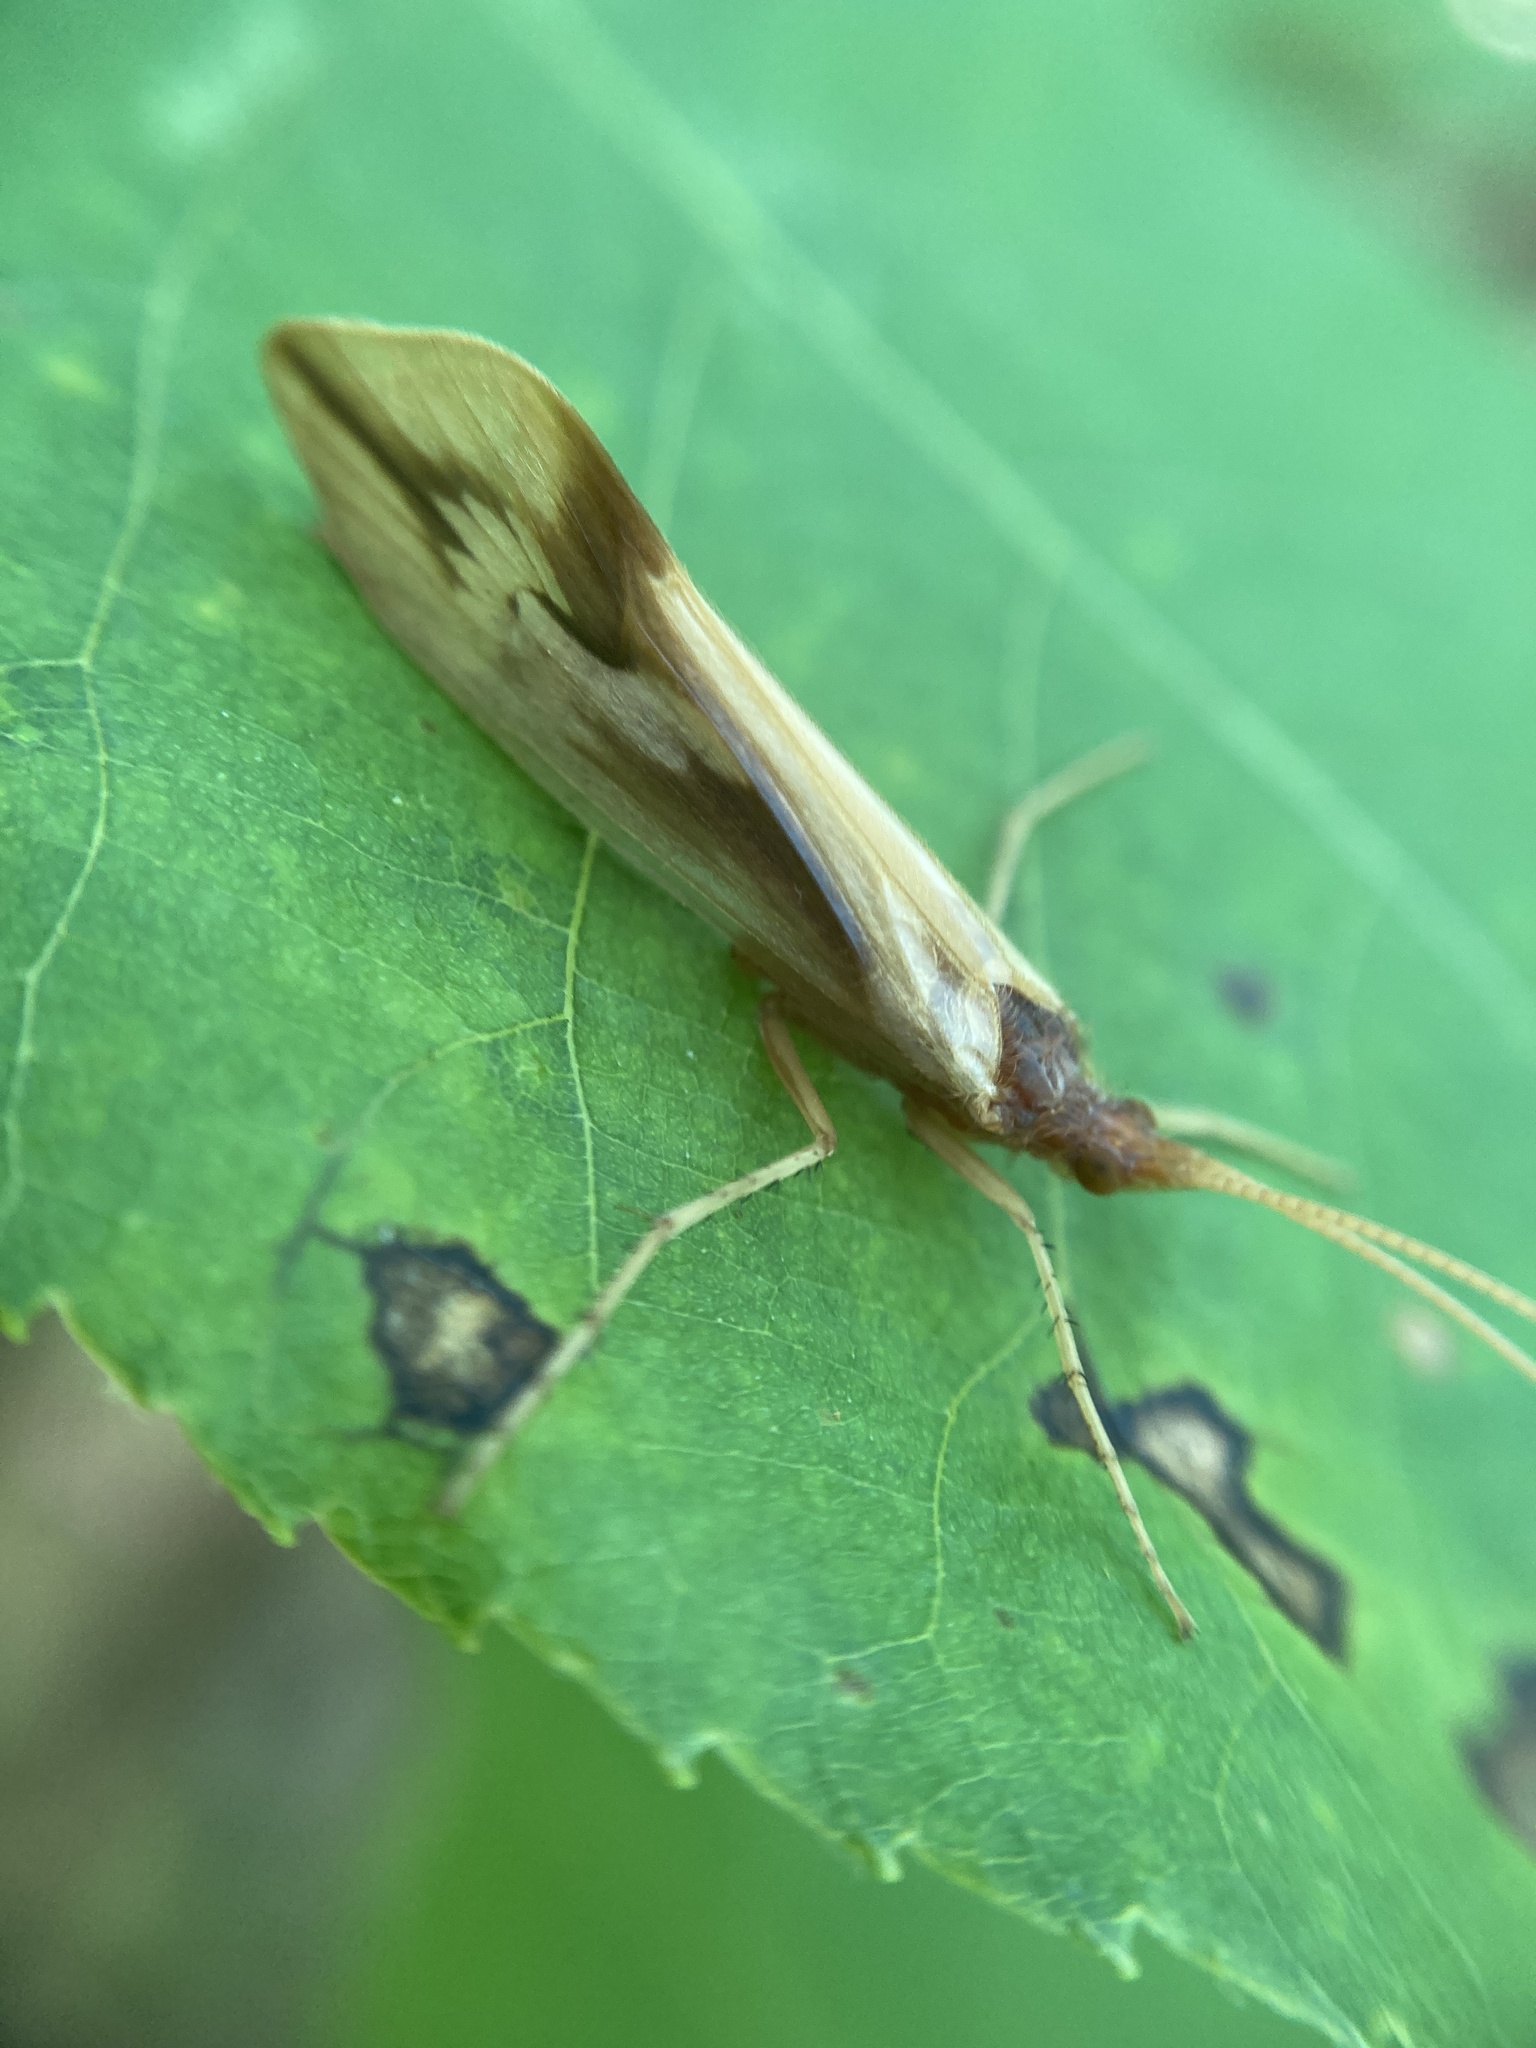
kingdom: Animalia
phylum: Arthropoda
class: Insecta
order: Trichoptera
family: Limnephilidae
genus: Platycentropus
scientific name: Platycentropus radiatus
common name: Chocolate-and-cream sedge
